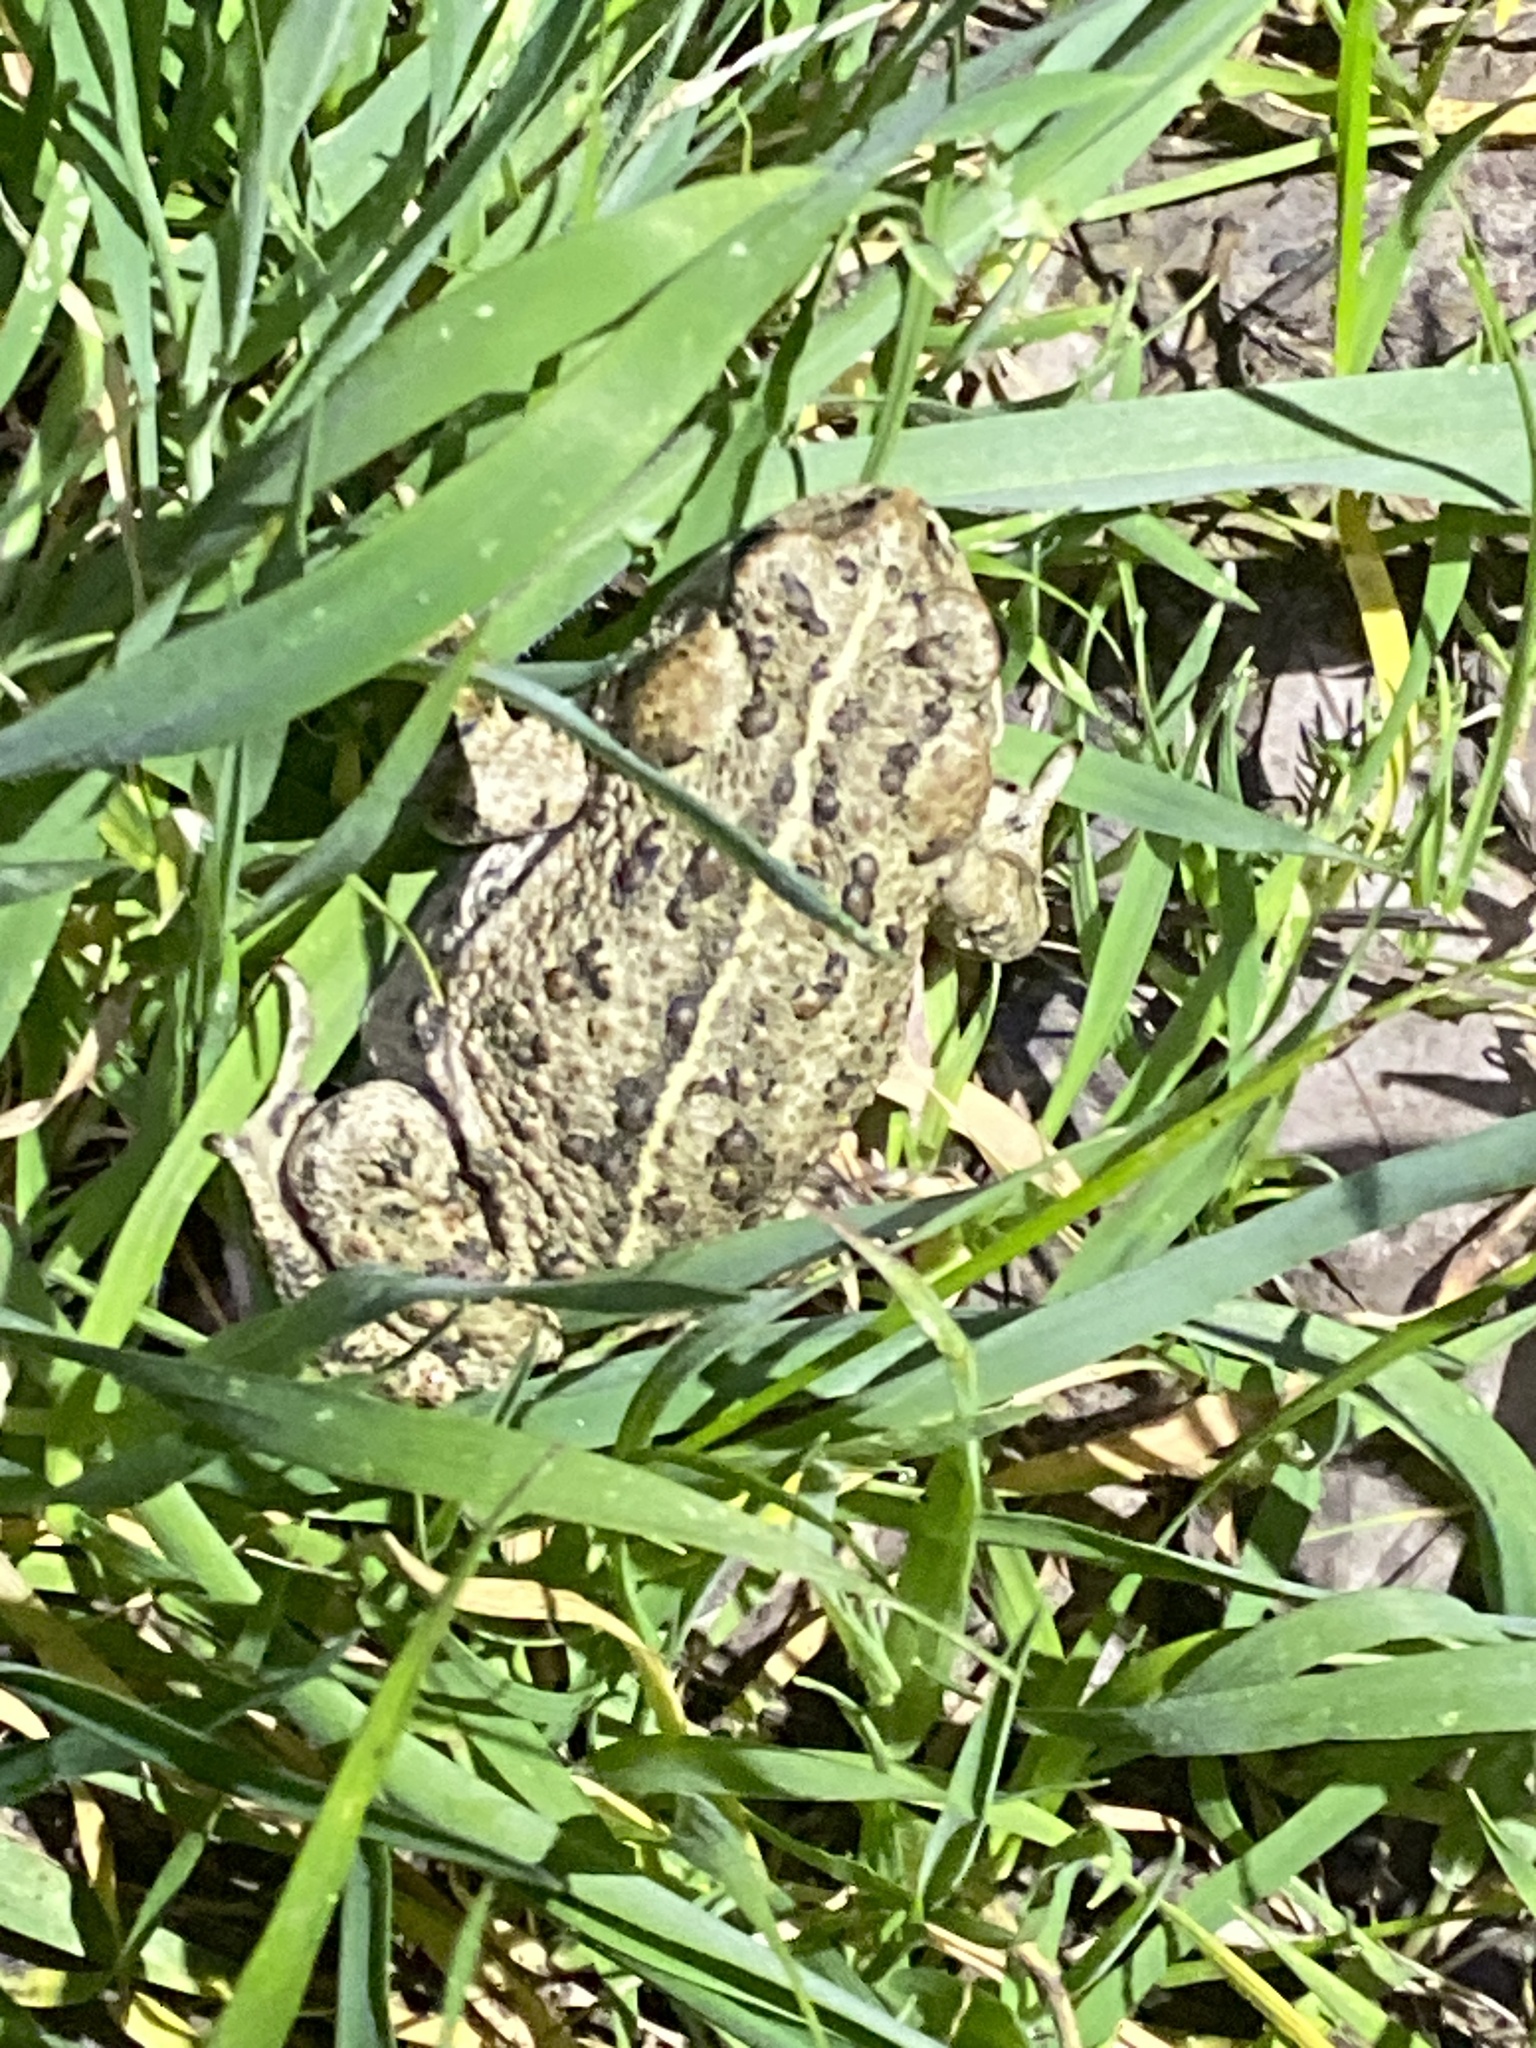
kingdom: Animalia
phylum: Chordata
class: Amphibia
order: Anura
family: Bufonidae
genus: Anaxyrus
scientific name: Anaxyrus boreas
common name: Western toad
